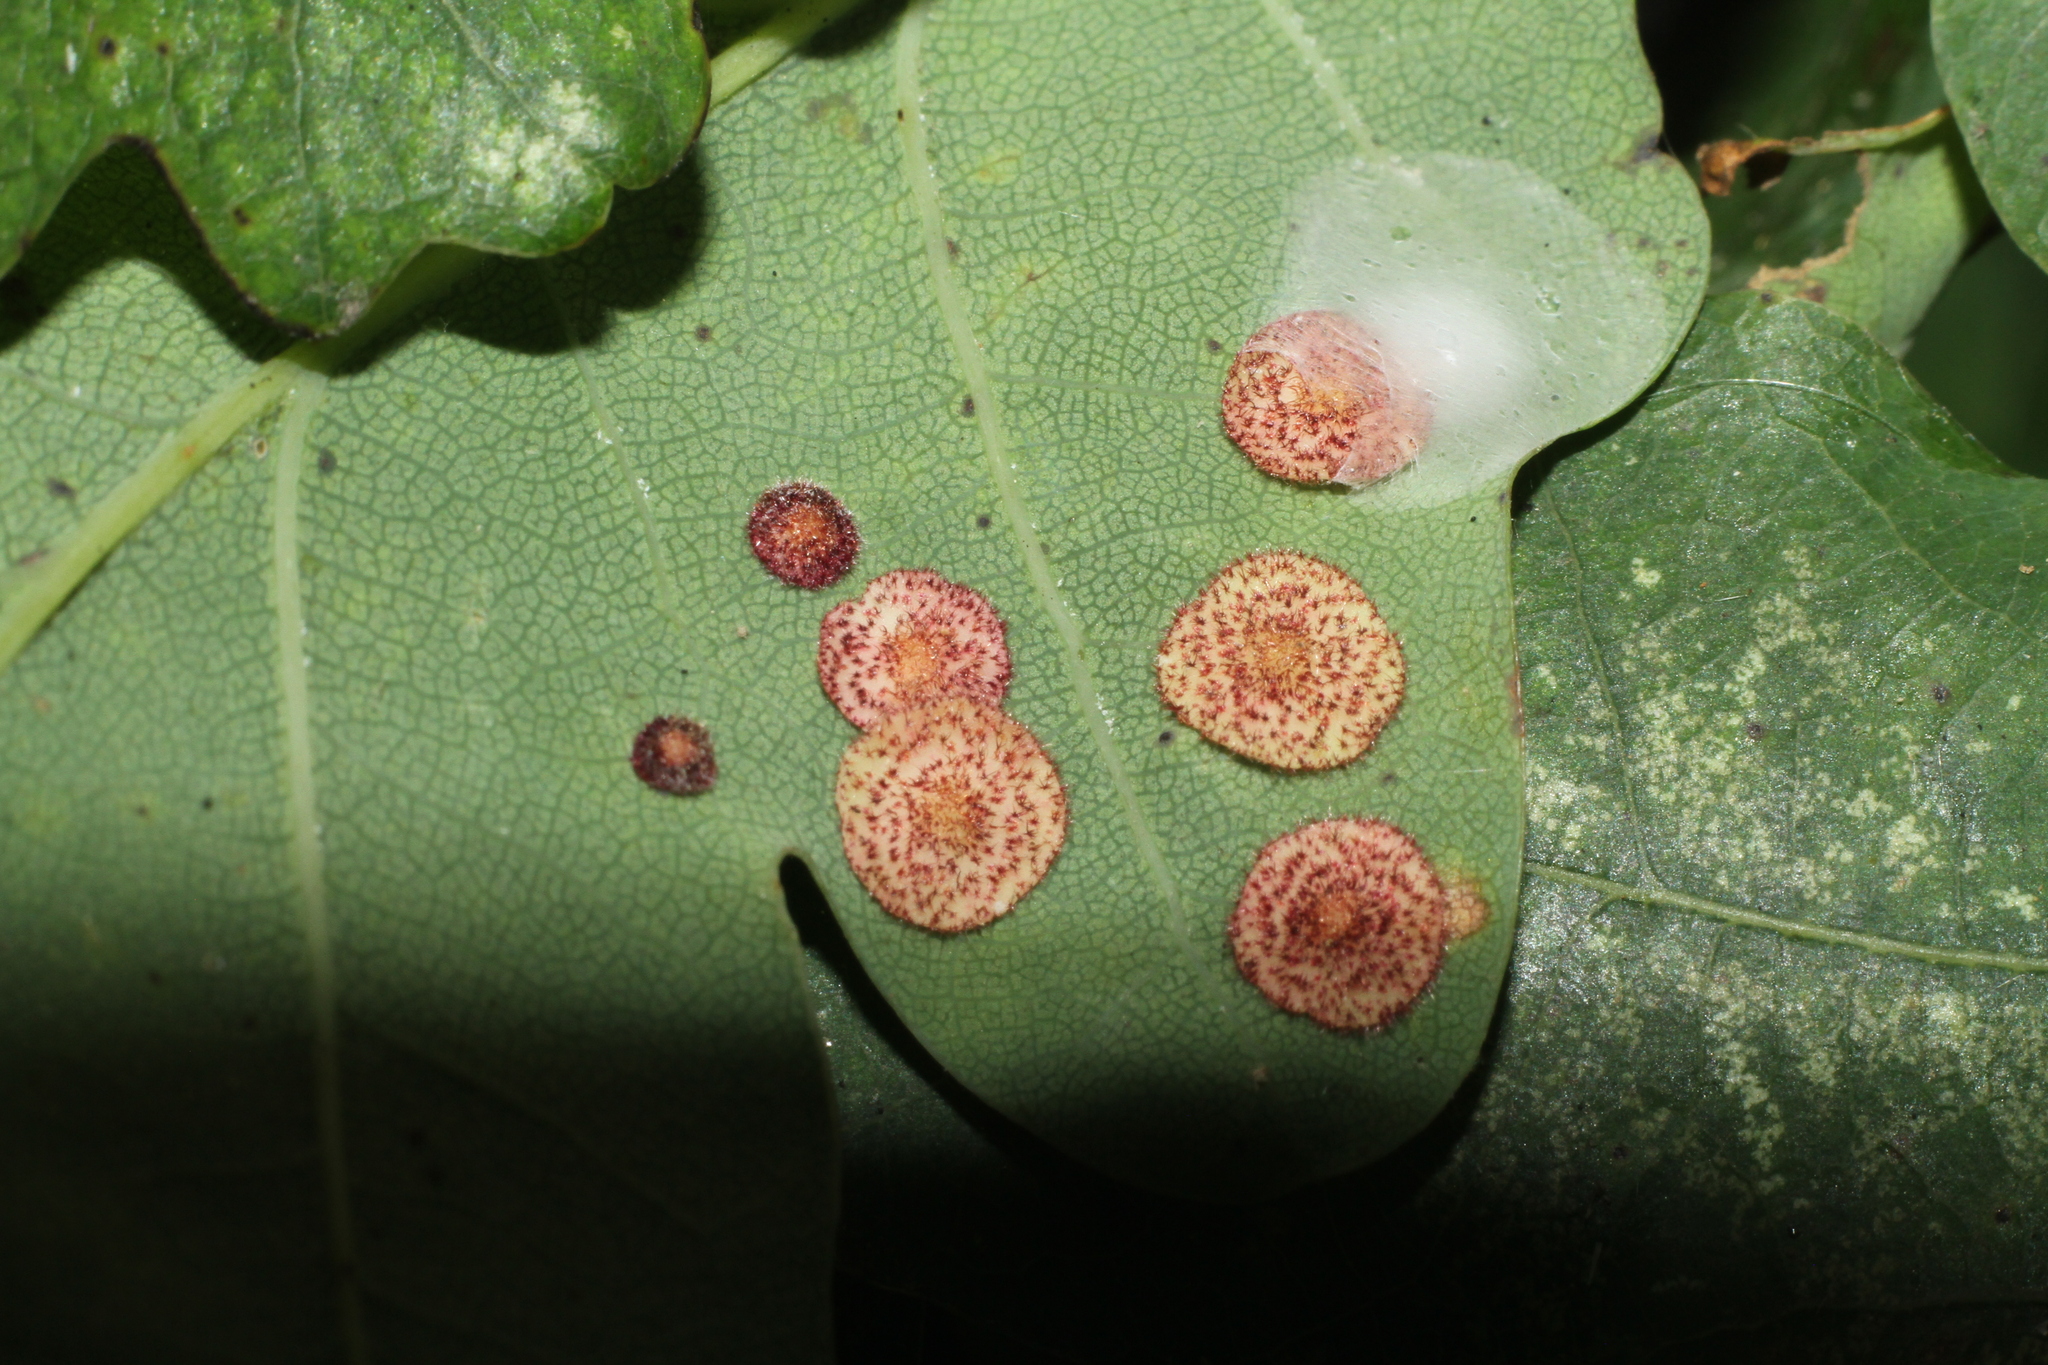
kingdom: Animalia
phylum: Arthropoda
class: Insecta
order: Hymenoptera
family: Cynipidae
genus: Neuroterus
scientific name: Neuroterus quercusbaccarum
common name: Common spangle gall
